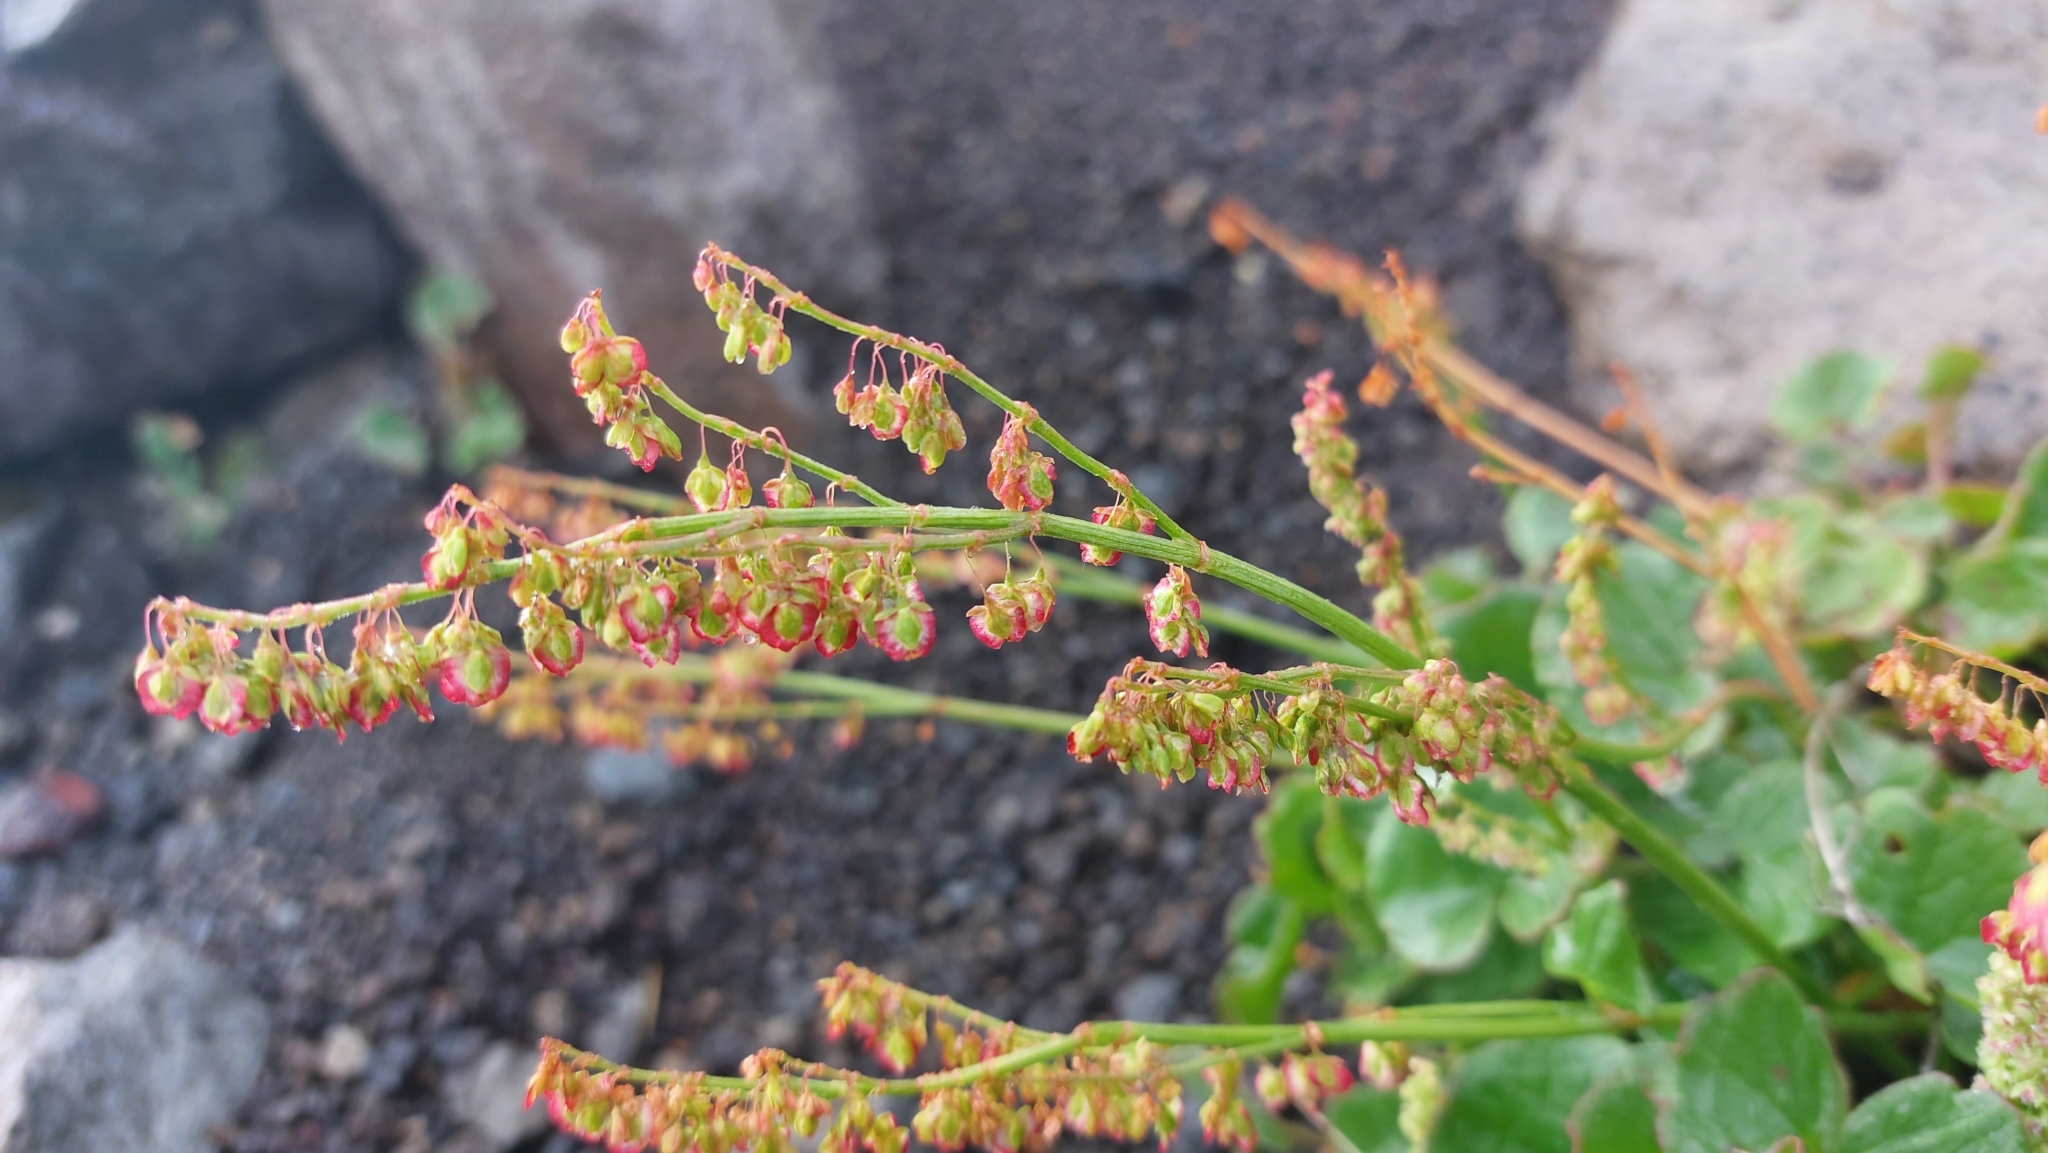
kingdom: Plantae
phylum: Tracheophyta
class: Magnoliopsida
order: Caryophyllales
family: Polygonaceae
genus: Oxyria
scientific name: Oxyria digyna
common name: Alpine mountain-sorrel
